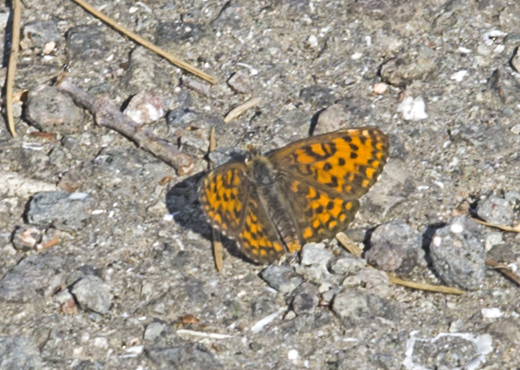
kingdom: Animalia
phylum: Arthropoda
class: Insecta
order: Lepidoptera
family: Nymphalidae
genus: Melitaea
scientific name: Melitaea trivia
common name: Lesser spotted fritillary
